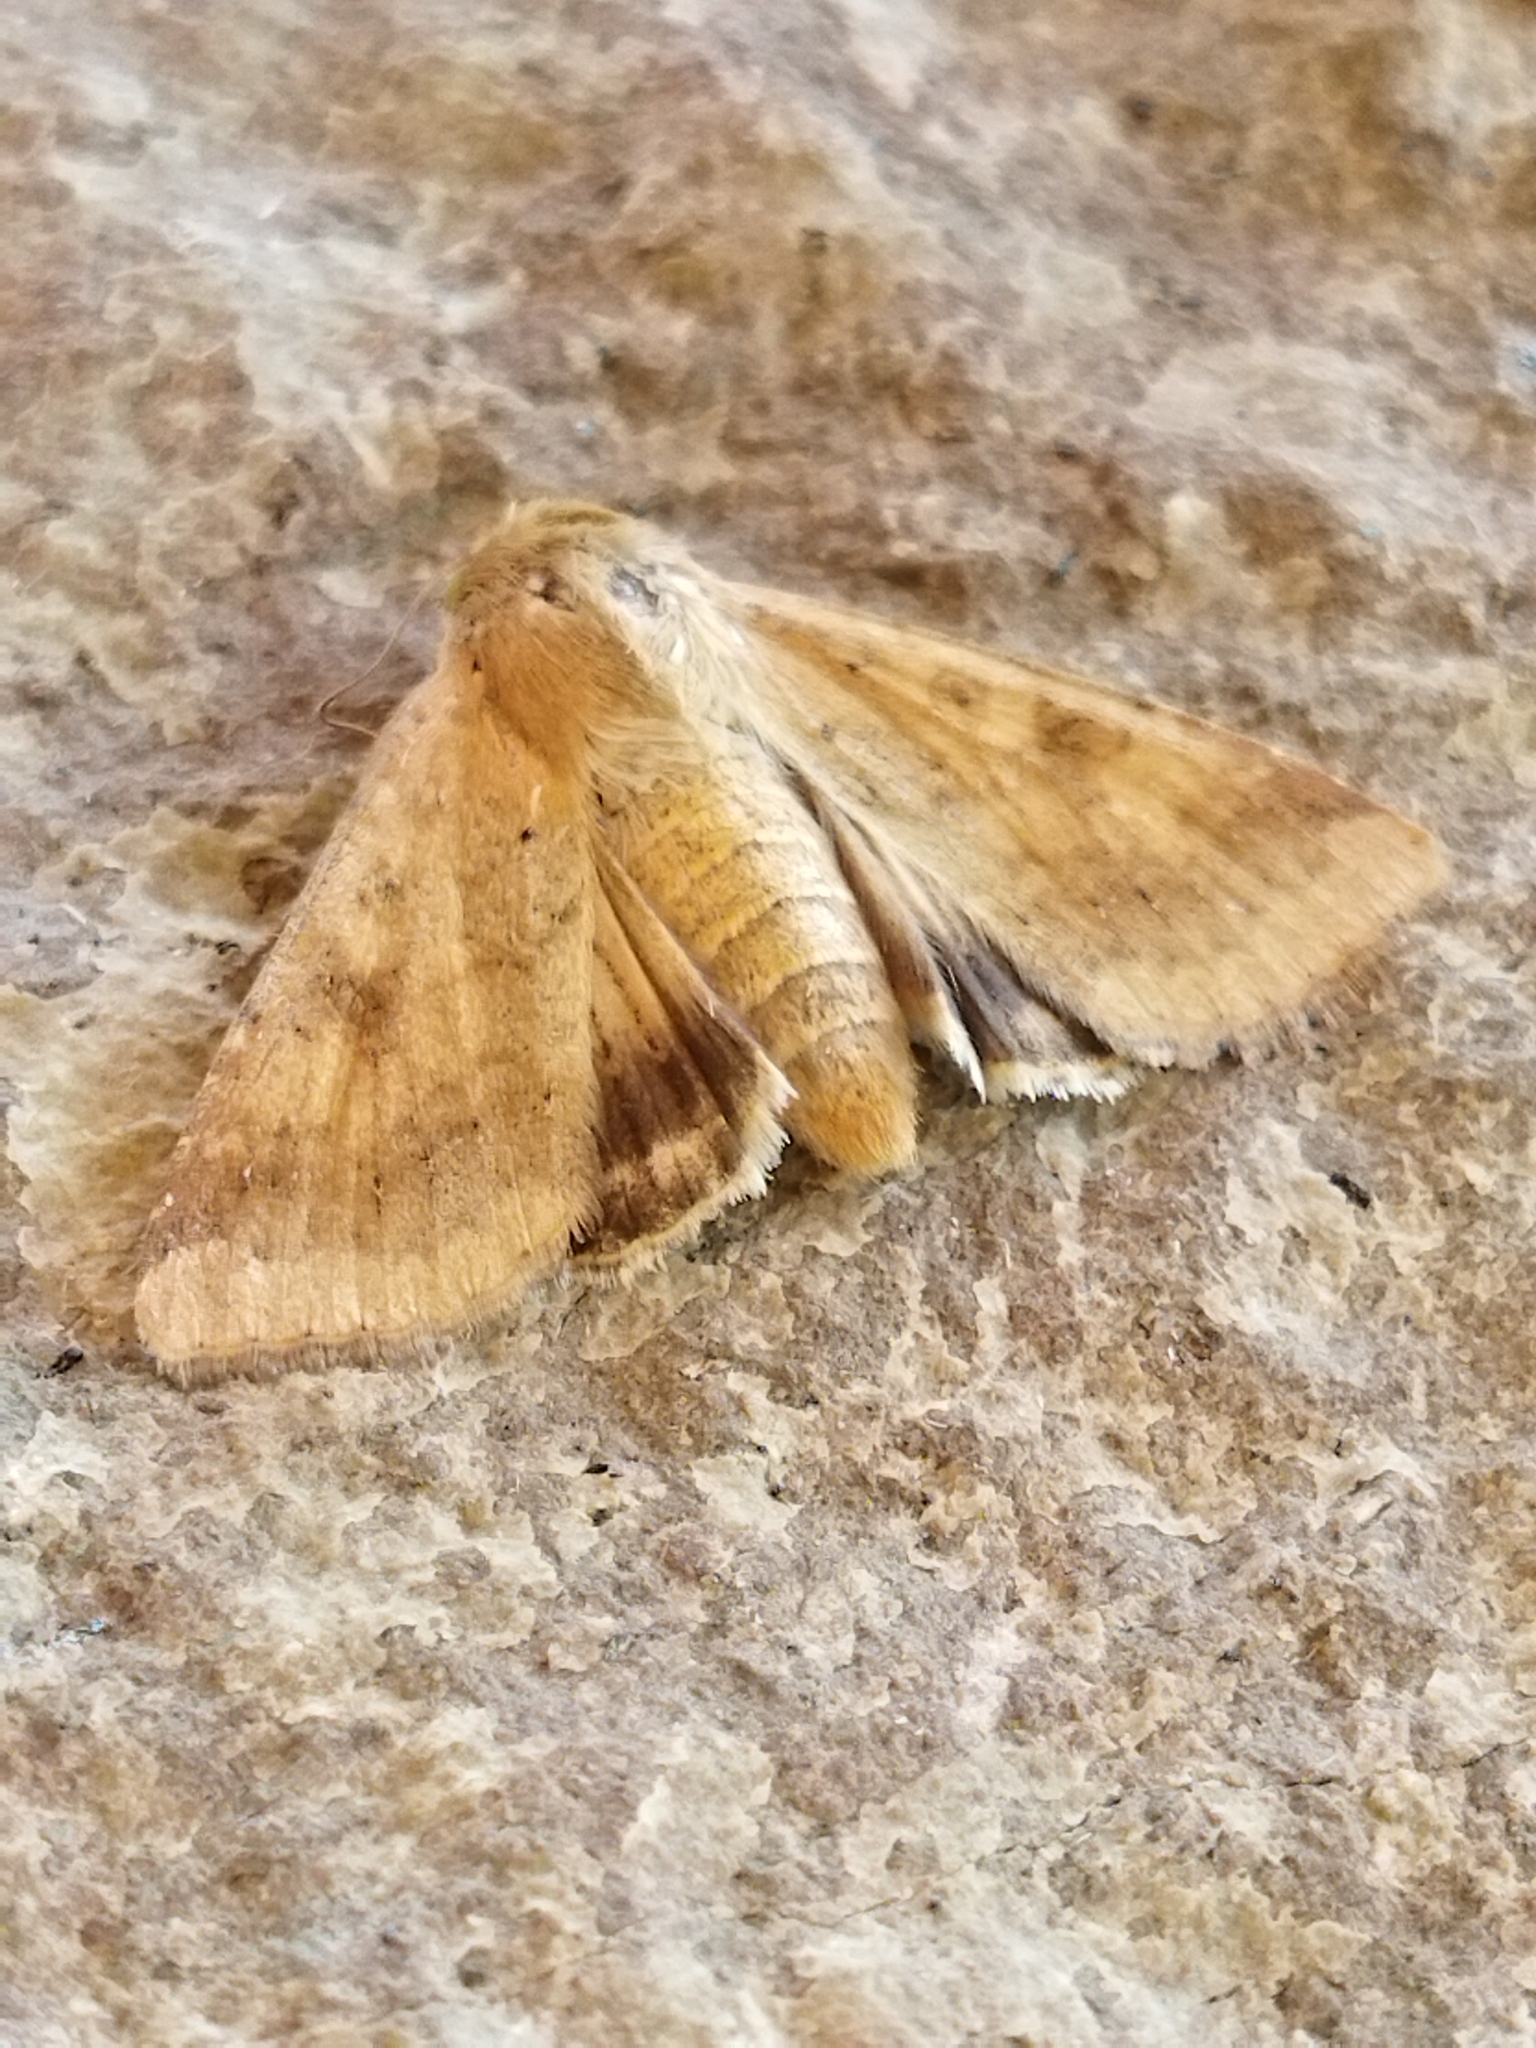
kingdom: Animalia
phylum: Arthropoda
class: Insecta
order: Lepidoptera
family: Noctuidae
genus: Helicoverpa
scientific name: Helicoverpa armigera
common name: Cotton bollworm
